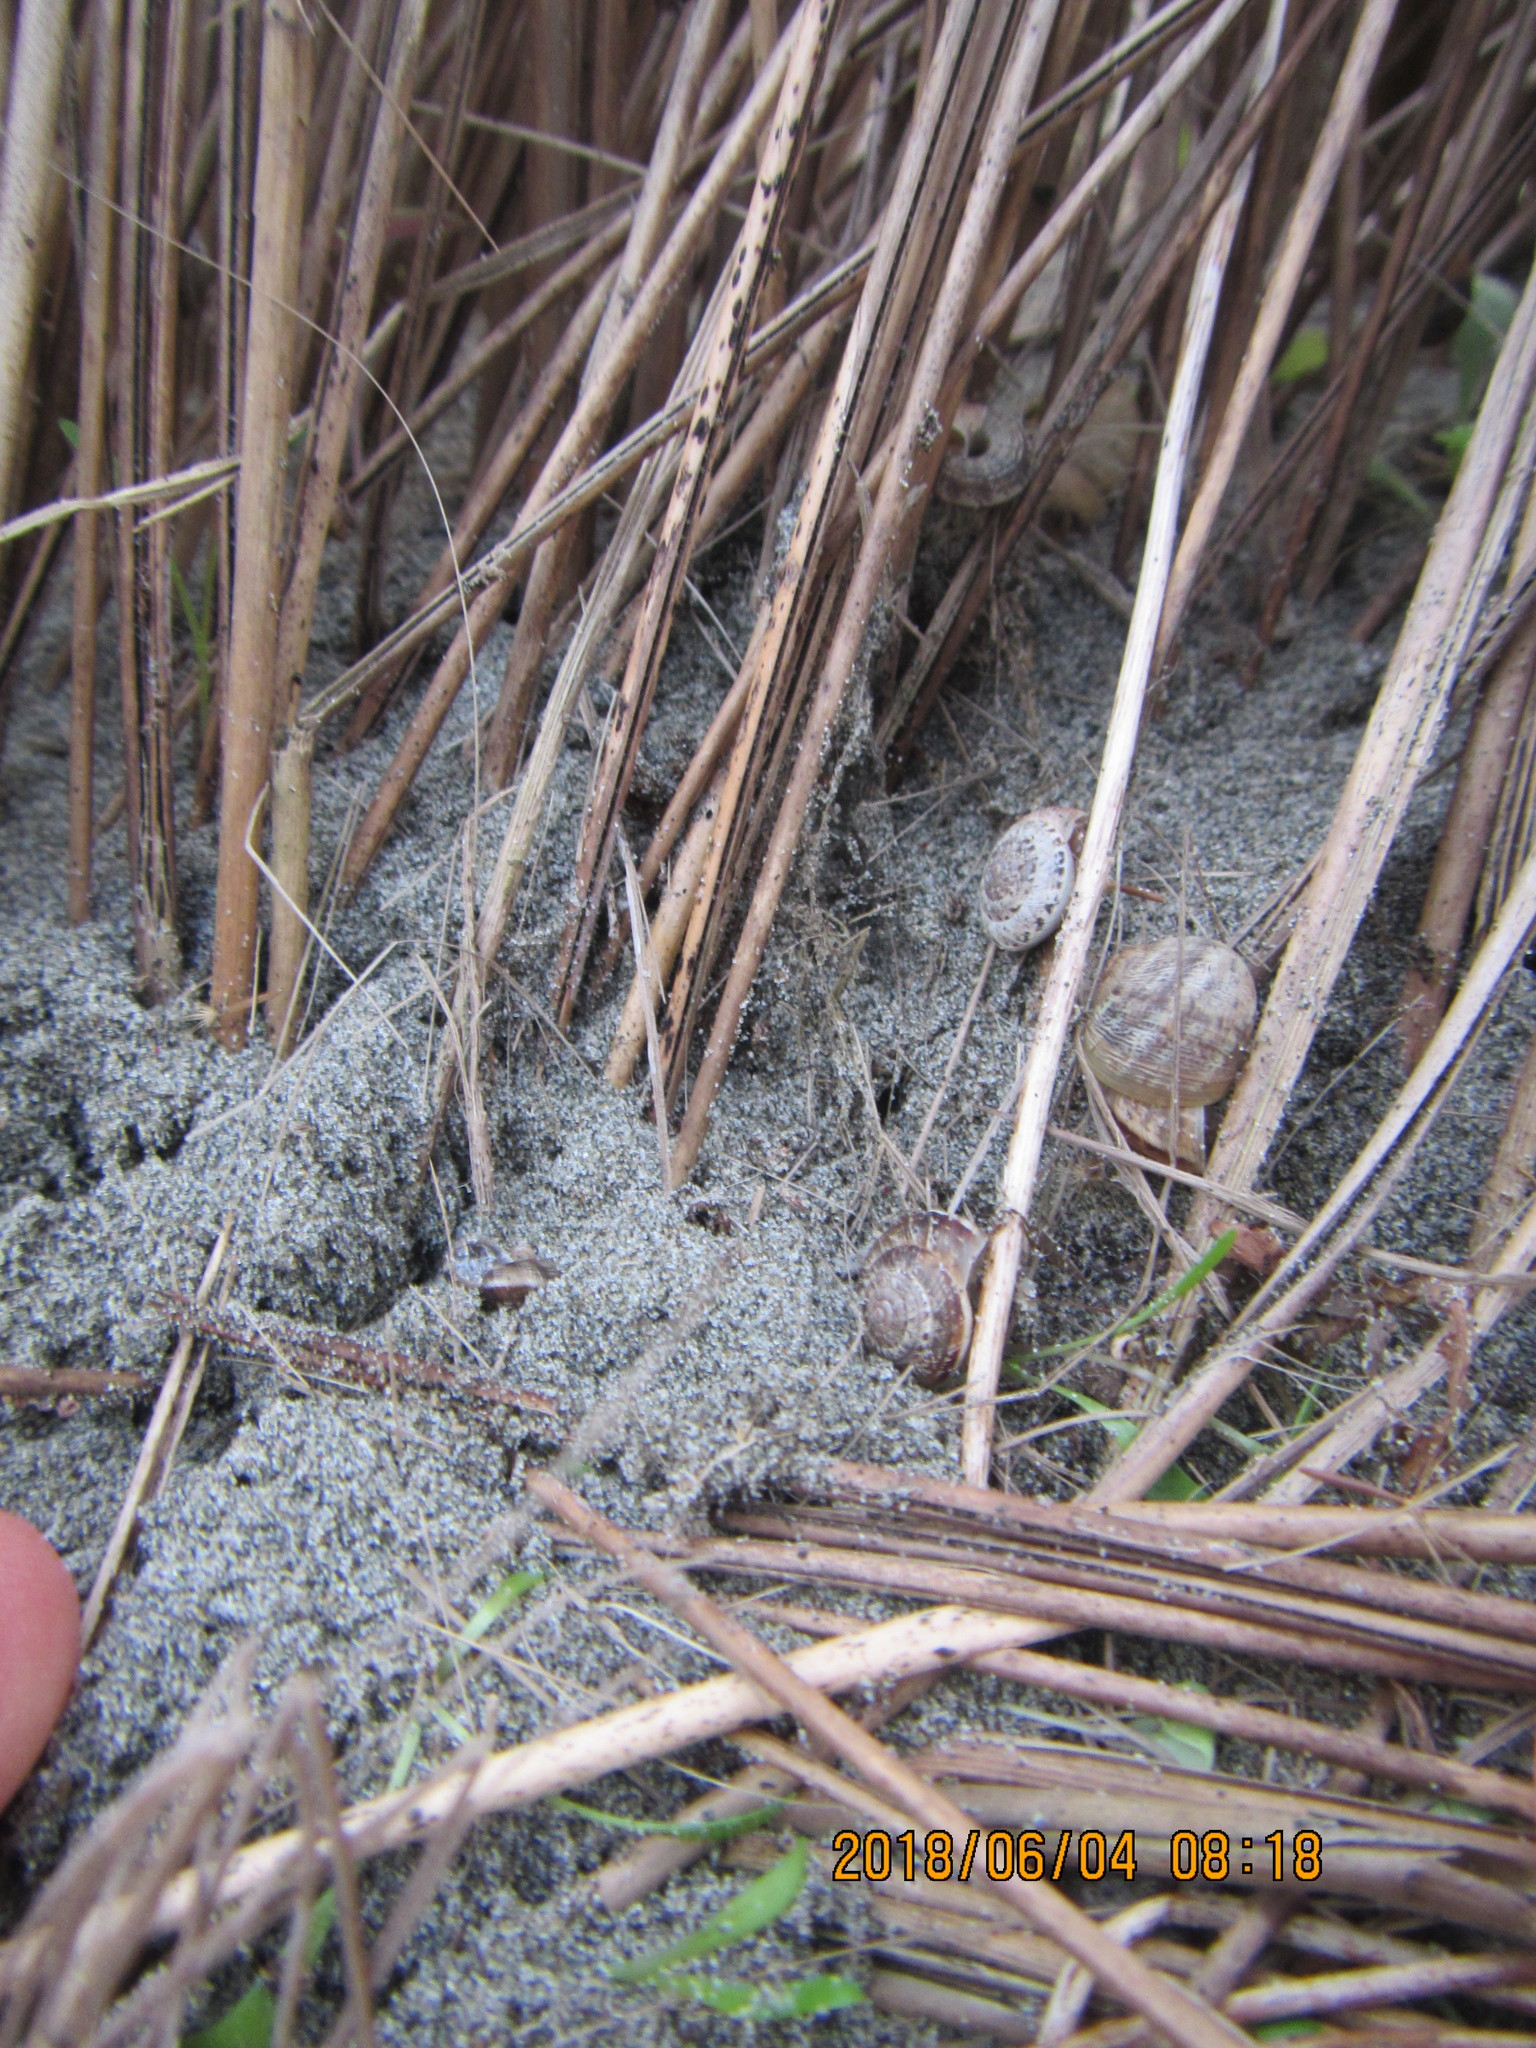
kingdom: Animalia
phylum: Mollusca
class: Gastropoda
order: Stylommatophora
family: Geomitridae
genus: Xeroplexa
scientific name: Xeroplexa intersecta
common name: Wrinkled snail
